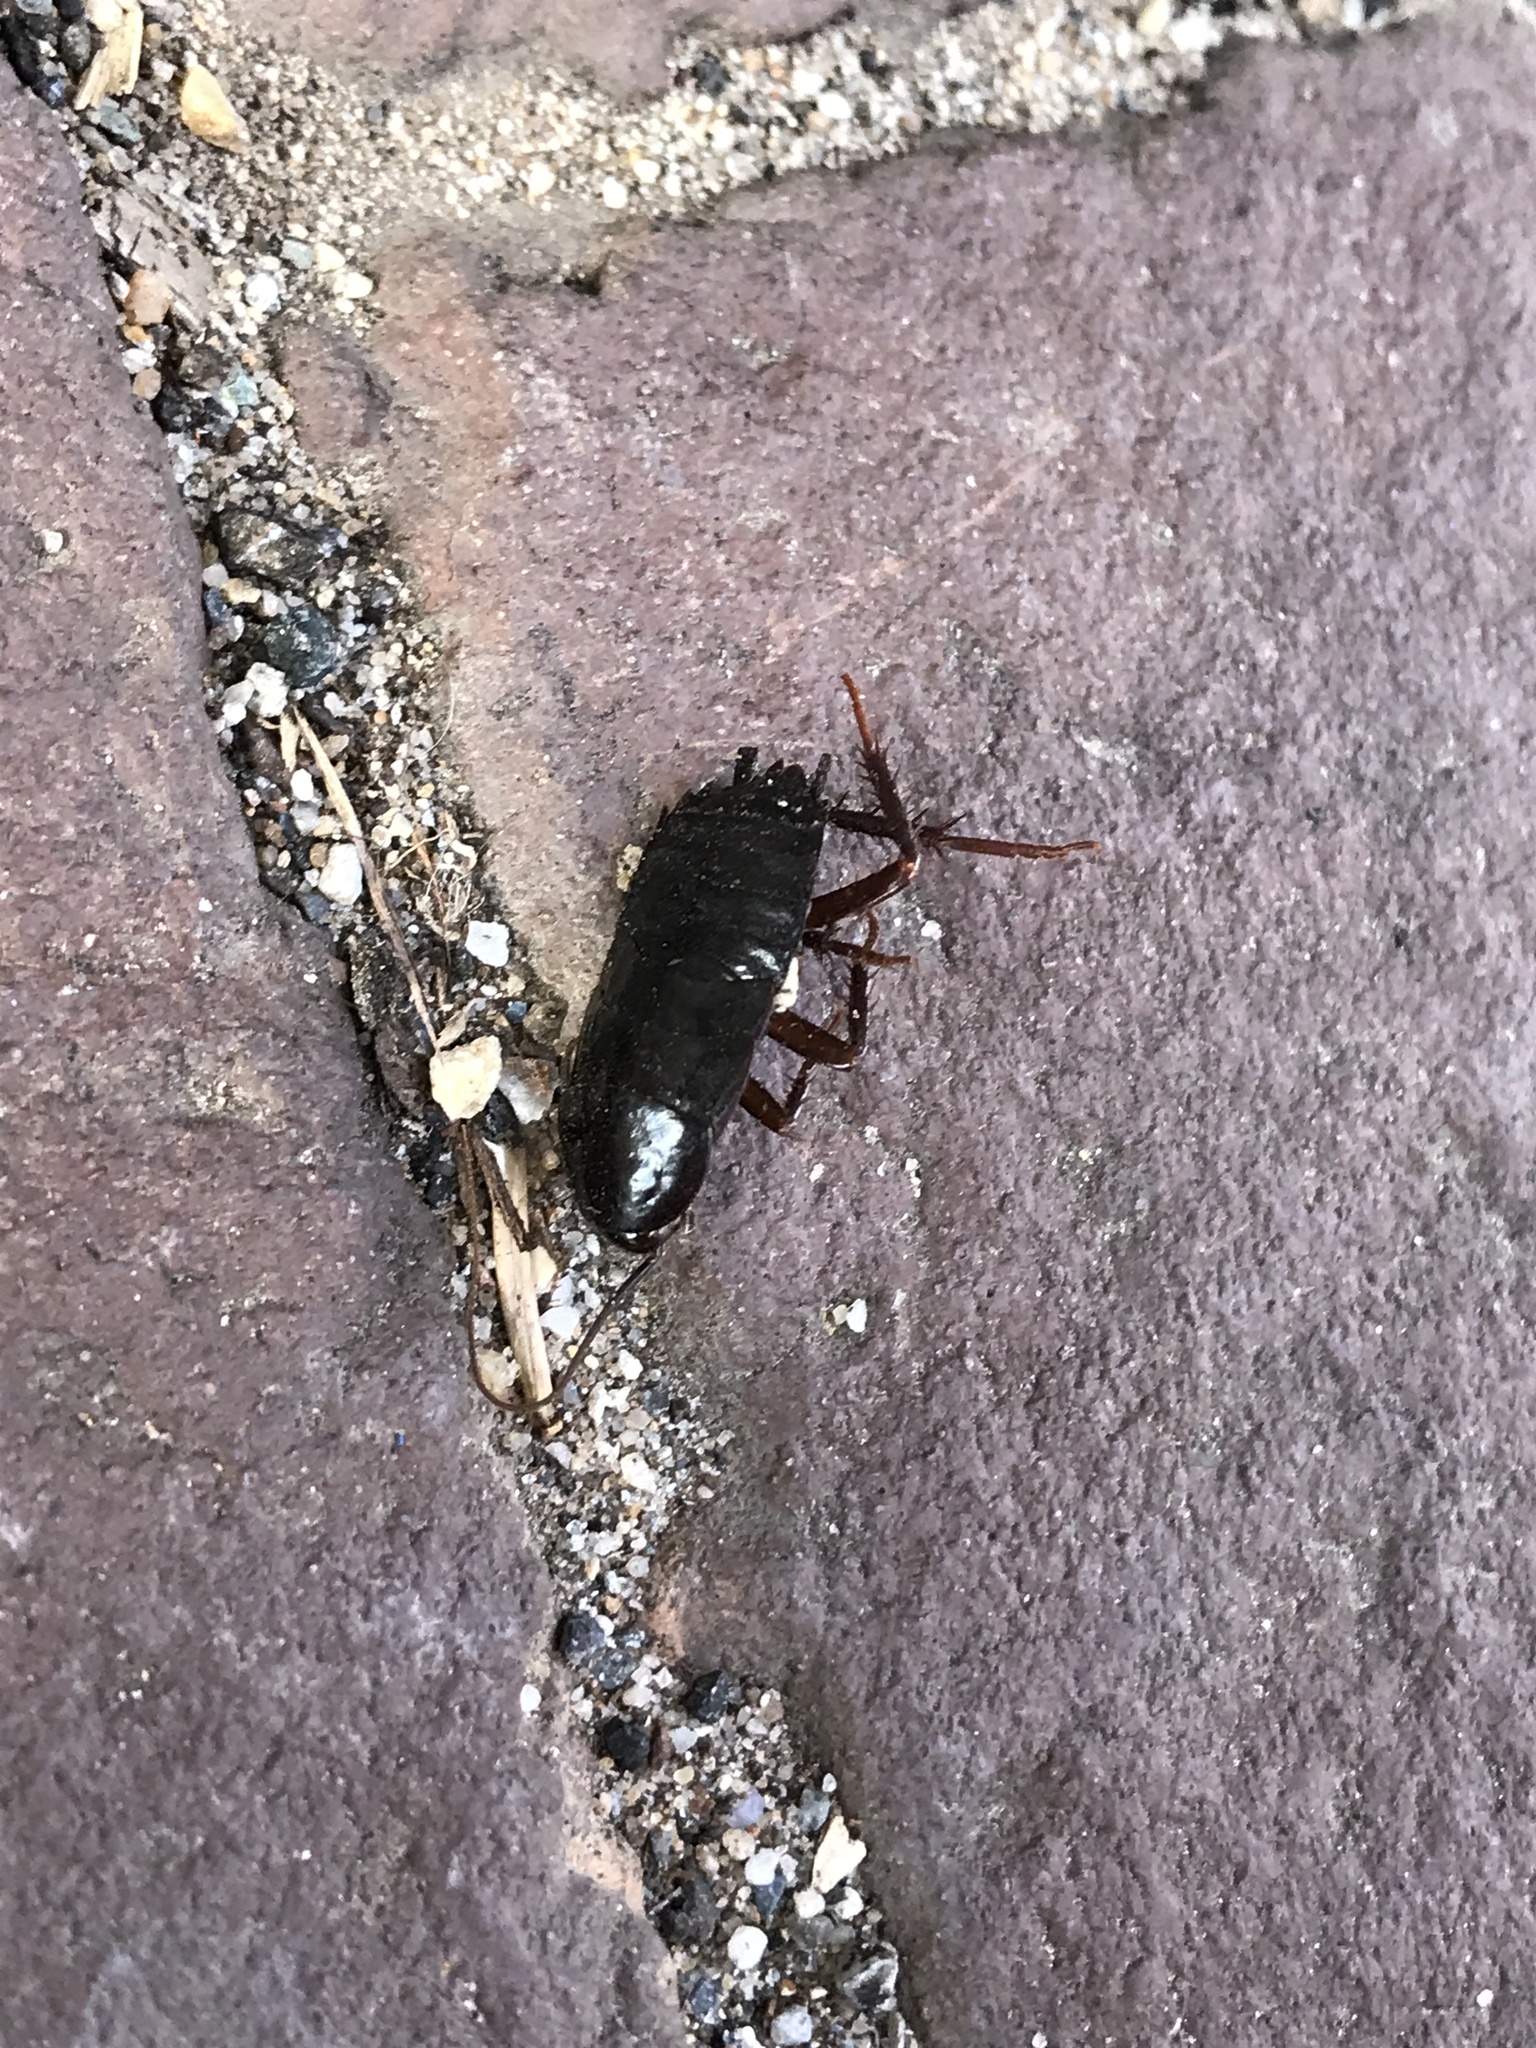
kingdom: Animalia
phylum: Arthropoda
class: Insecta
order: Blattodea
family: Blattidae
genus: Blatta
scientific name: Blatta orientalis
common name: Oriental cockroach
